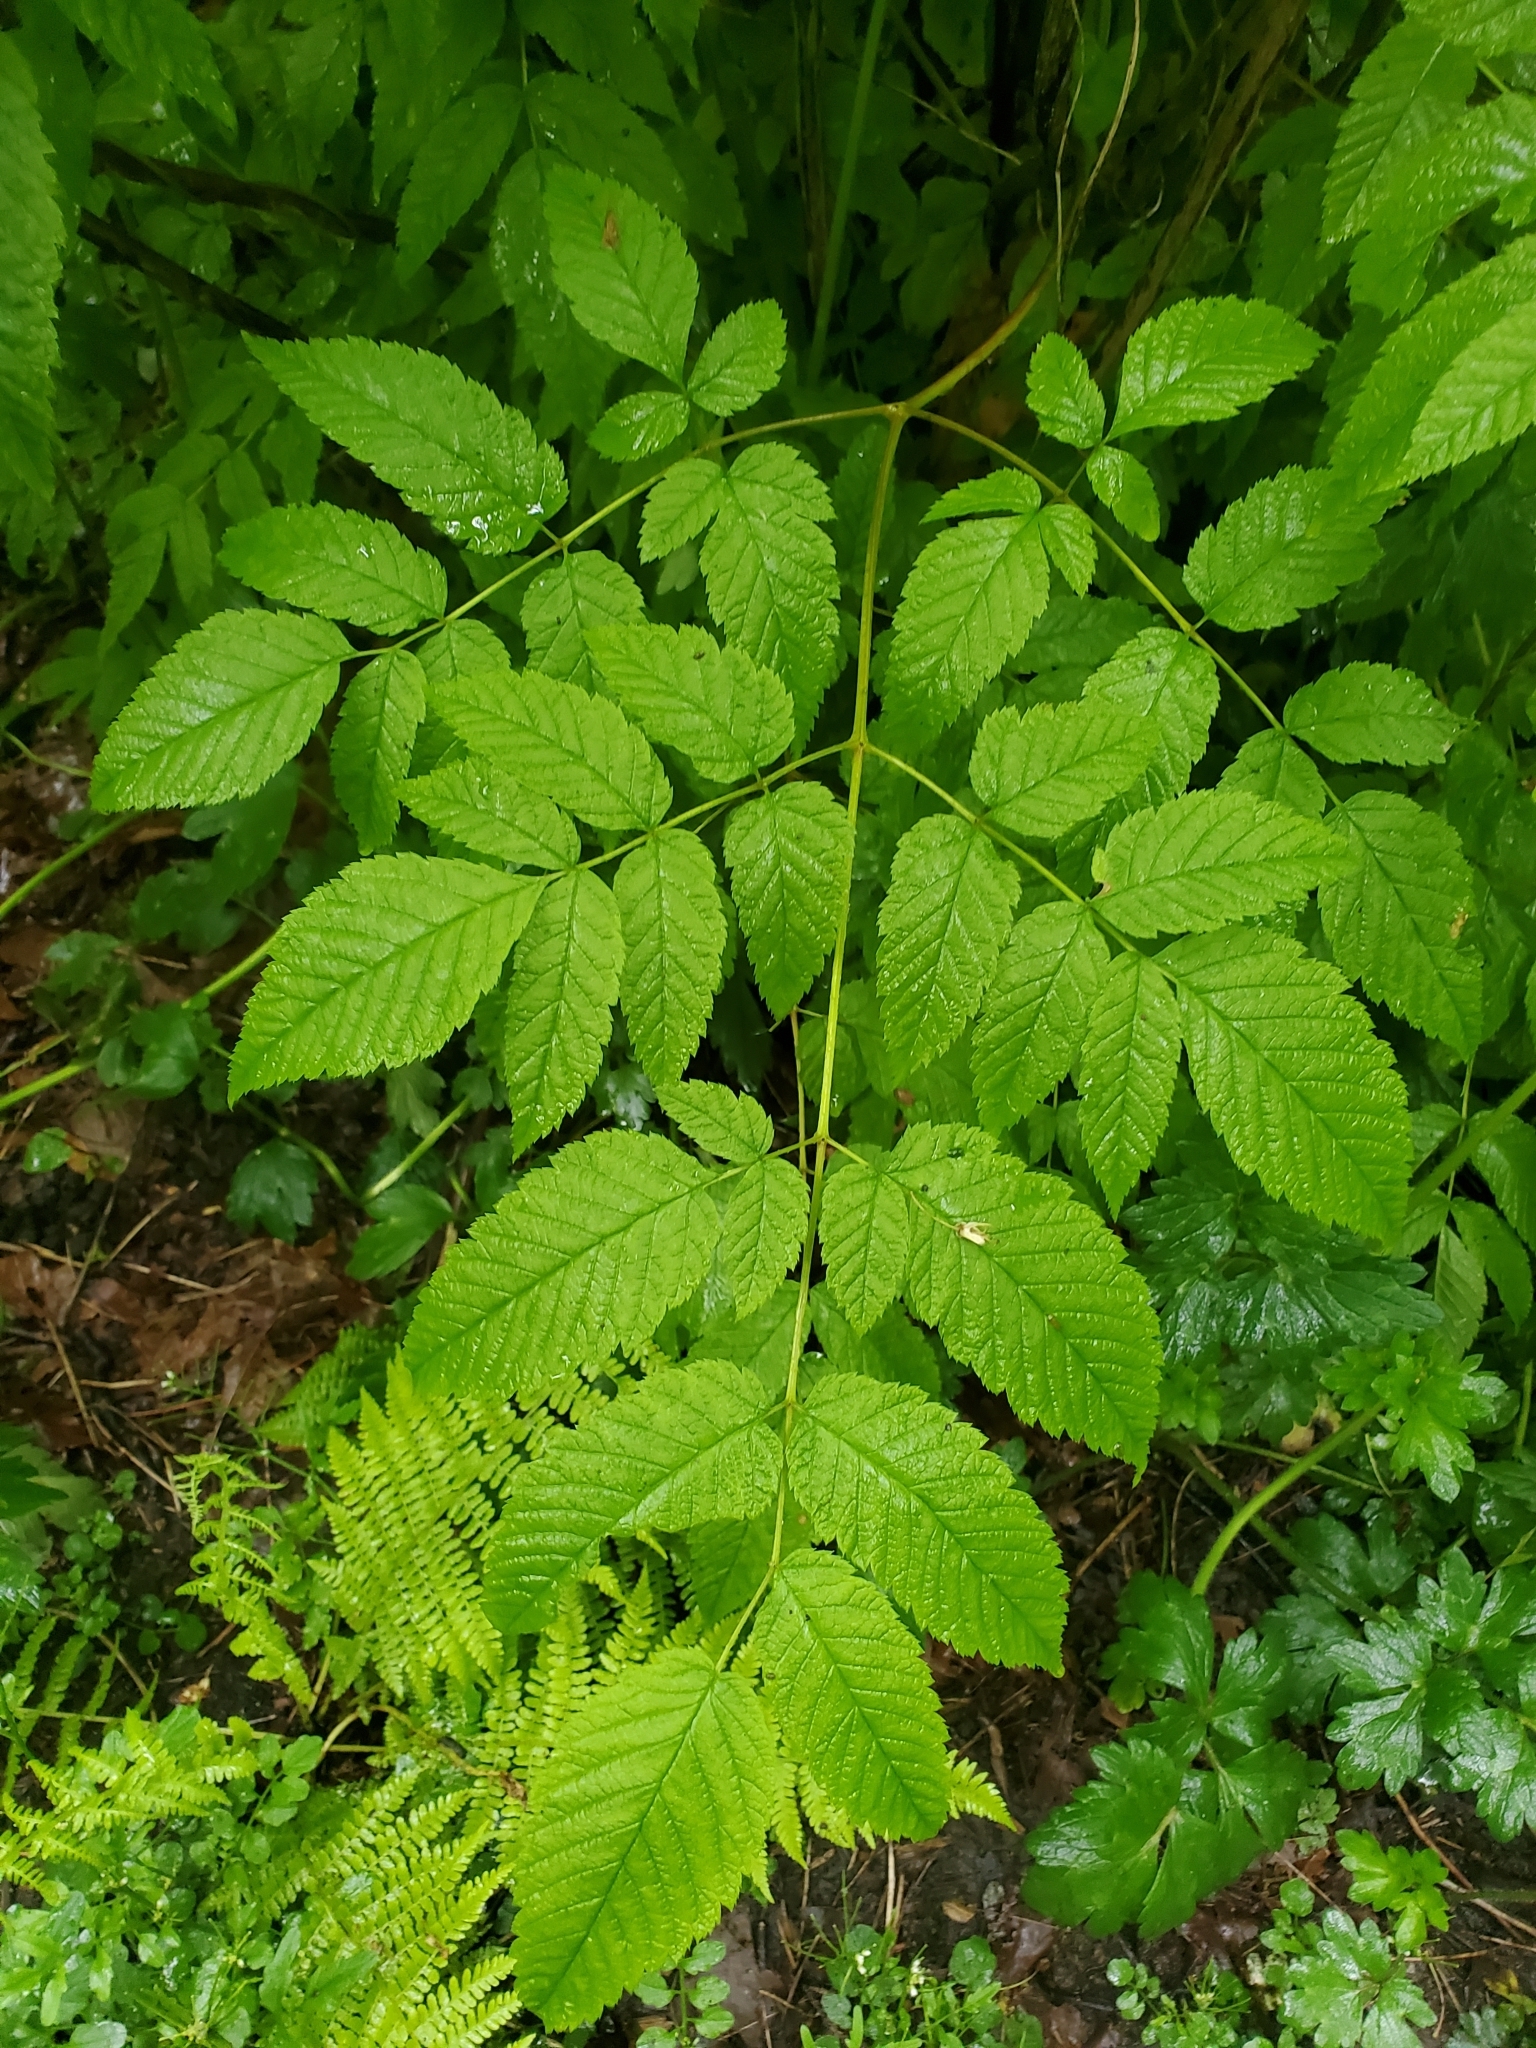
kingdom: Plantae
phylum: Tracheophyta
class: Magnoliopsida
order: Rosales
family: Rosaceae
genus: Aruncus
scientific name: Aruncus dioicus
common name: Buck's-beard
